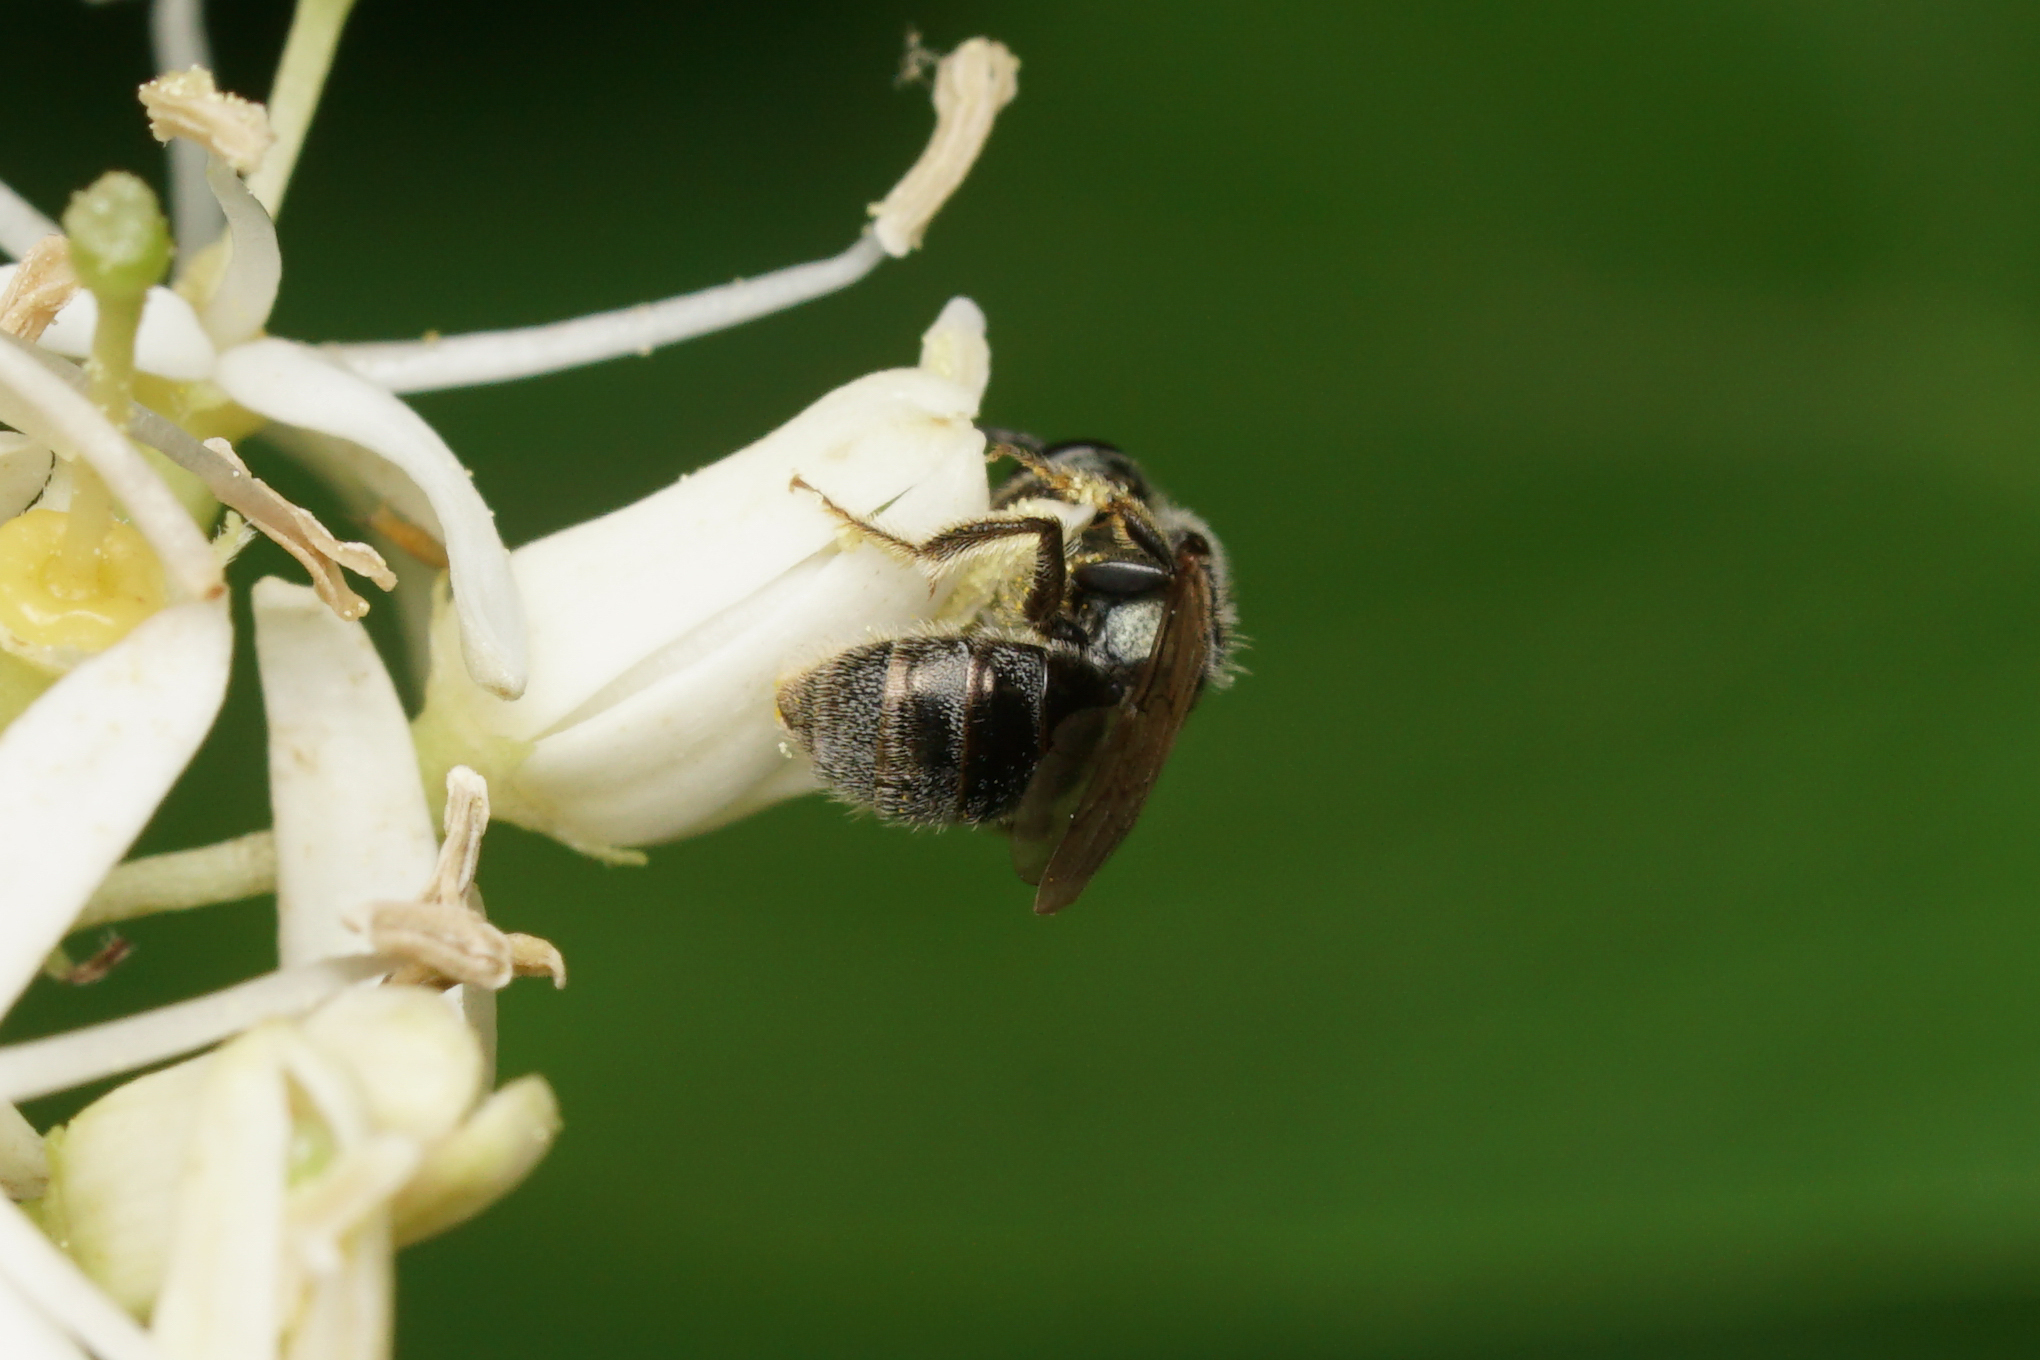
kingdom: Animalia
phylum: Arthropoda
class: Insecta
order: Hymenoptera
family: Halictidae
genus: Dialictus
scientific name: Dialictus
